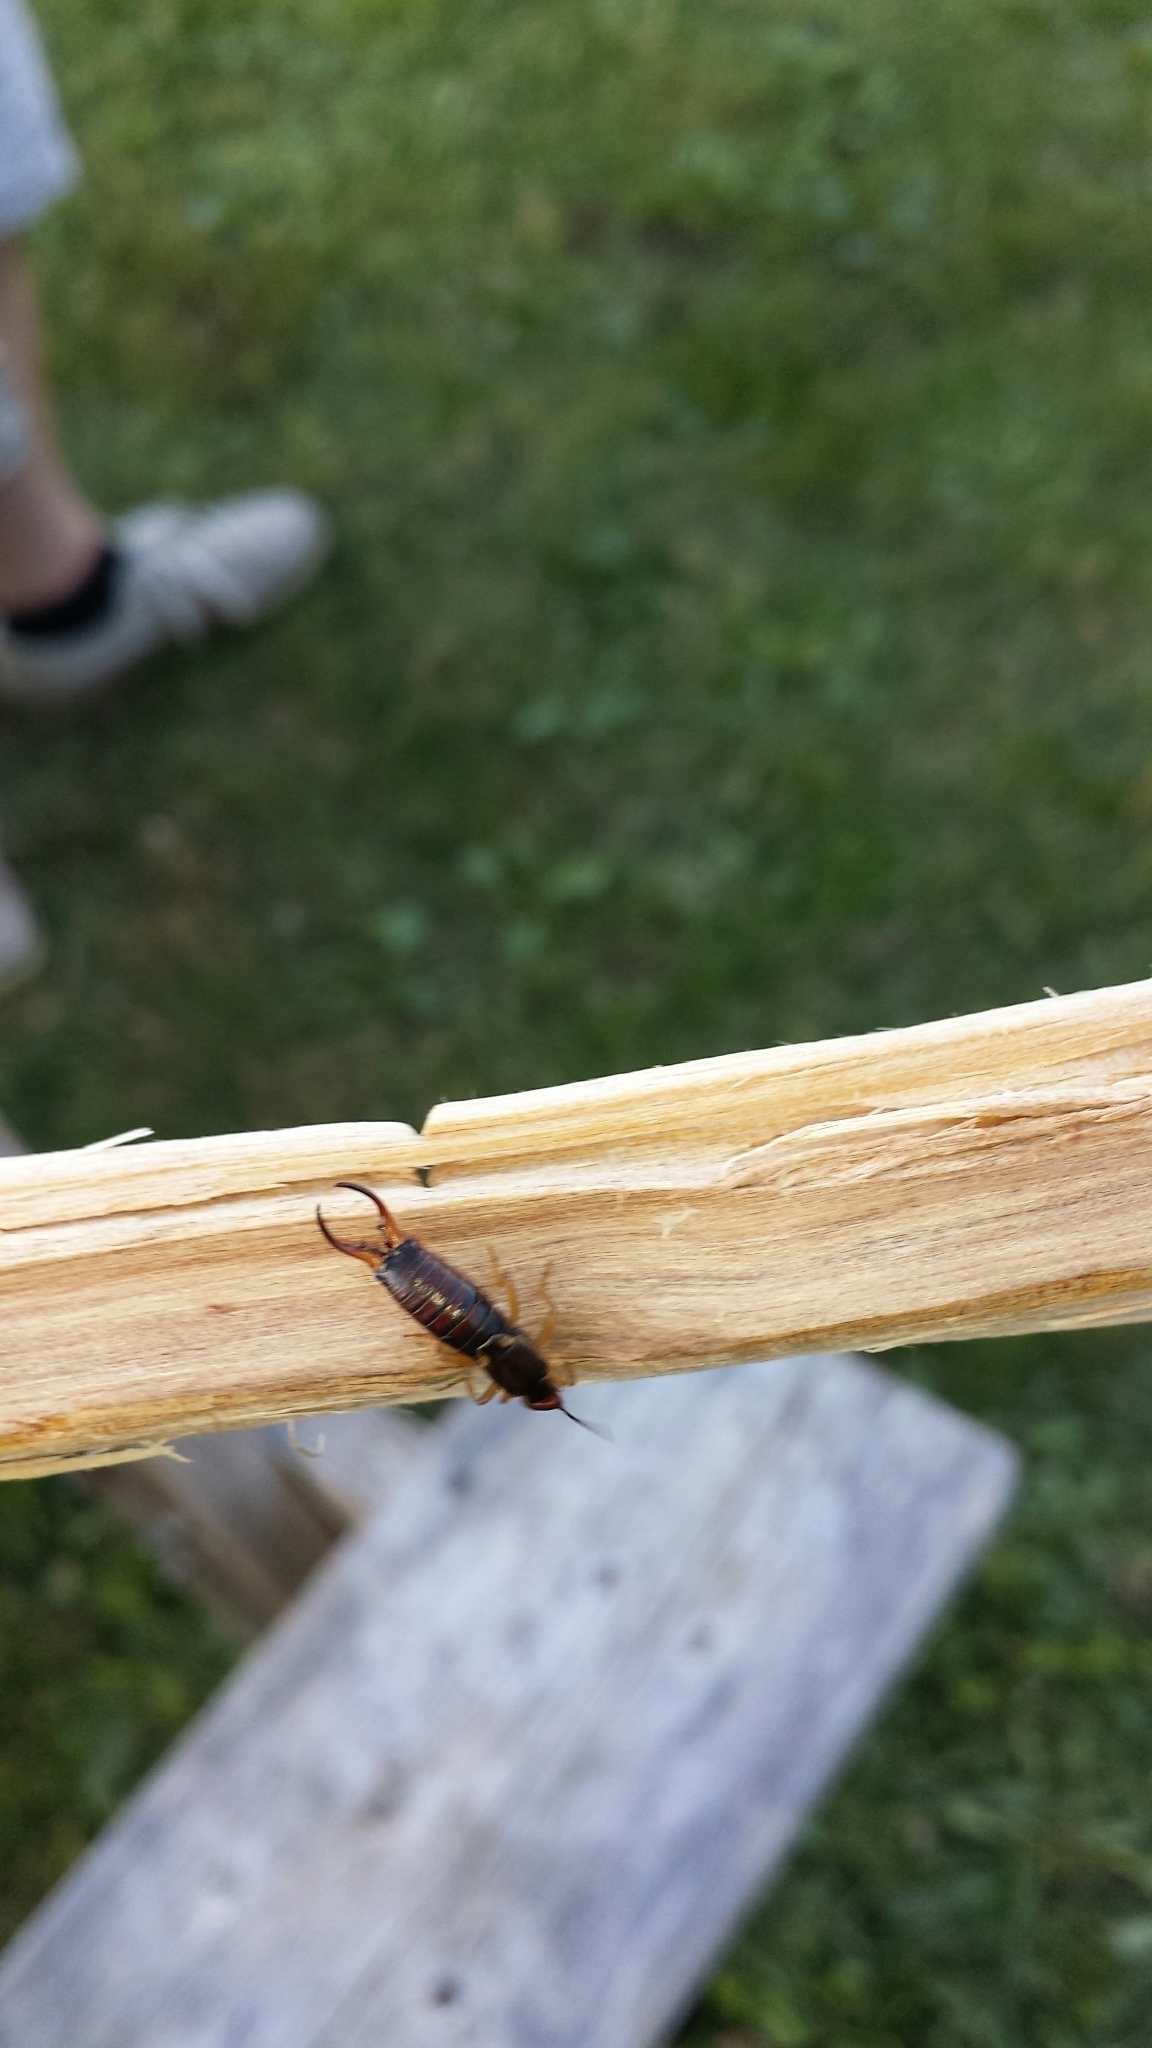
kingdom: Animalia
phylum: Arthropoda
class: Insecta
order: Dermaptera
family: Forficulidae
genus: Forficula
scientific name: Forficula
